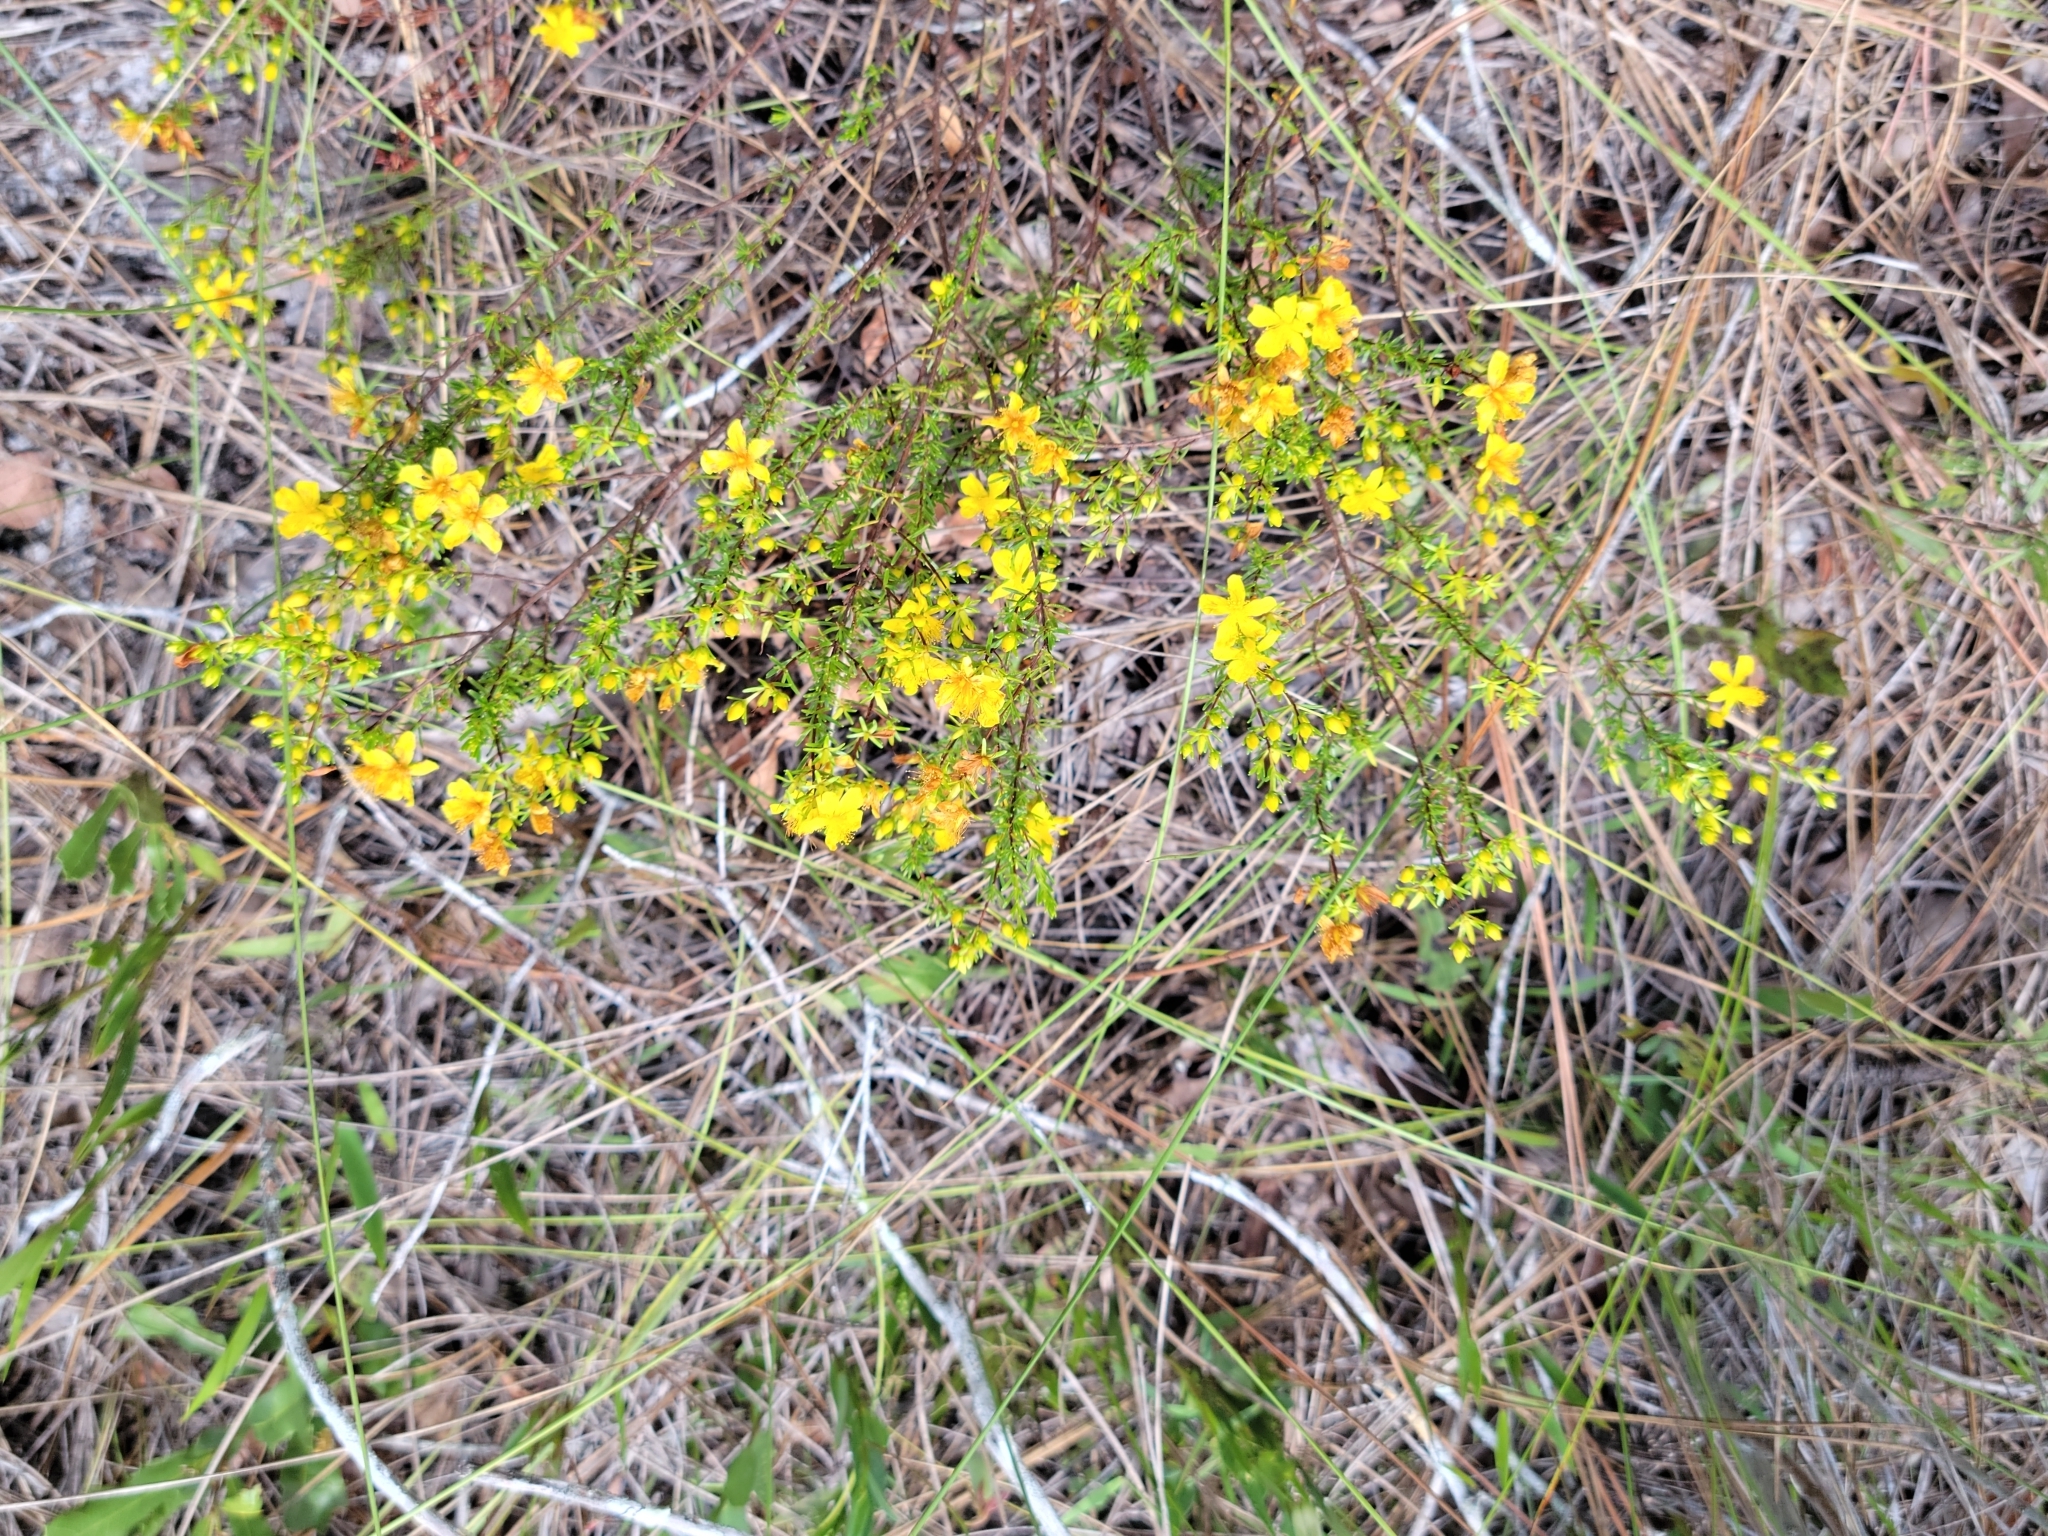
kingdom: Plantae
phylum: Tracheophyta
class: Magnoliopsida
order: Malpighiales
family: Hypericaceae
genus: Hypericum
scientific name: Hypericum tenuifolium
